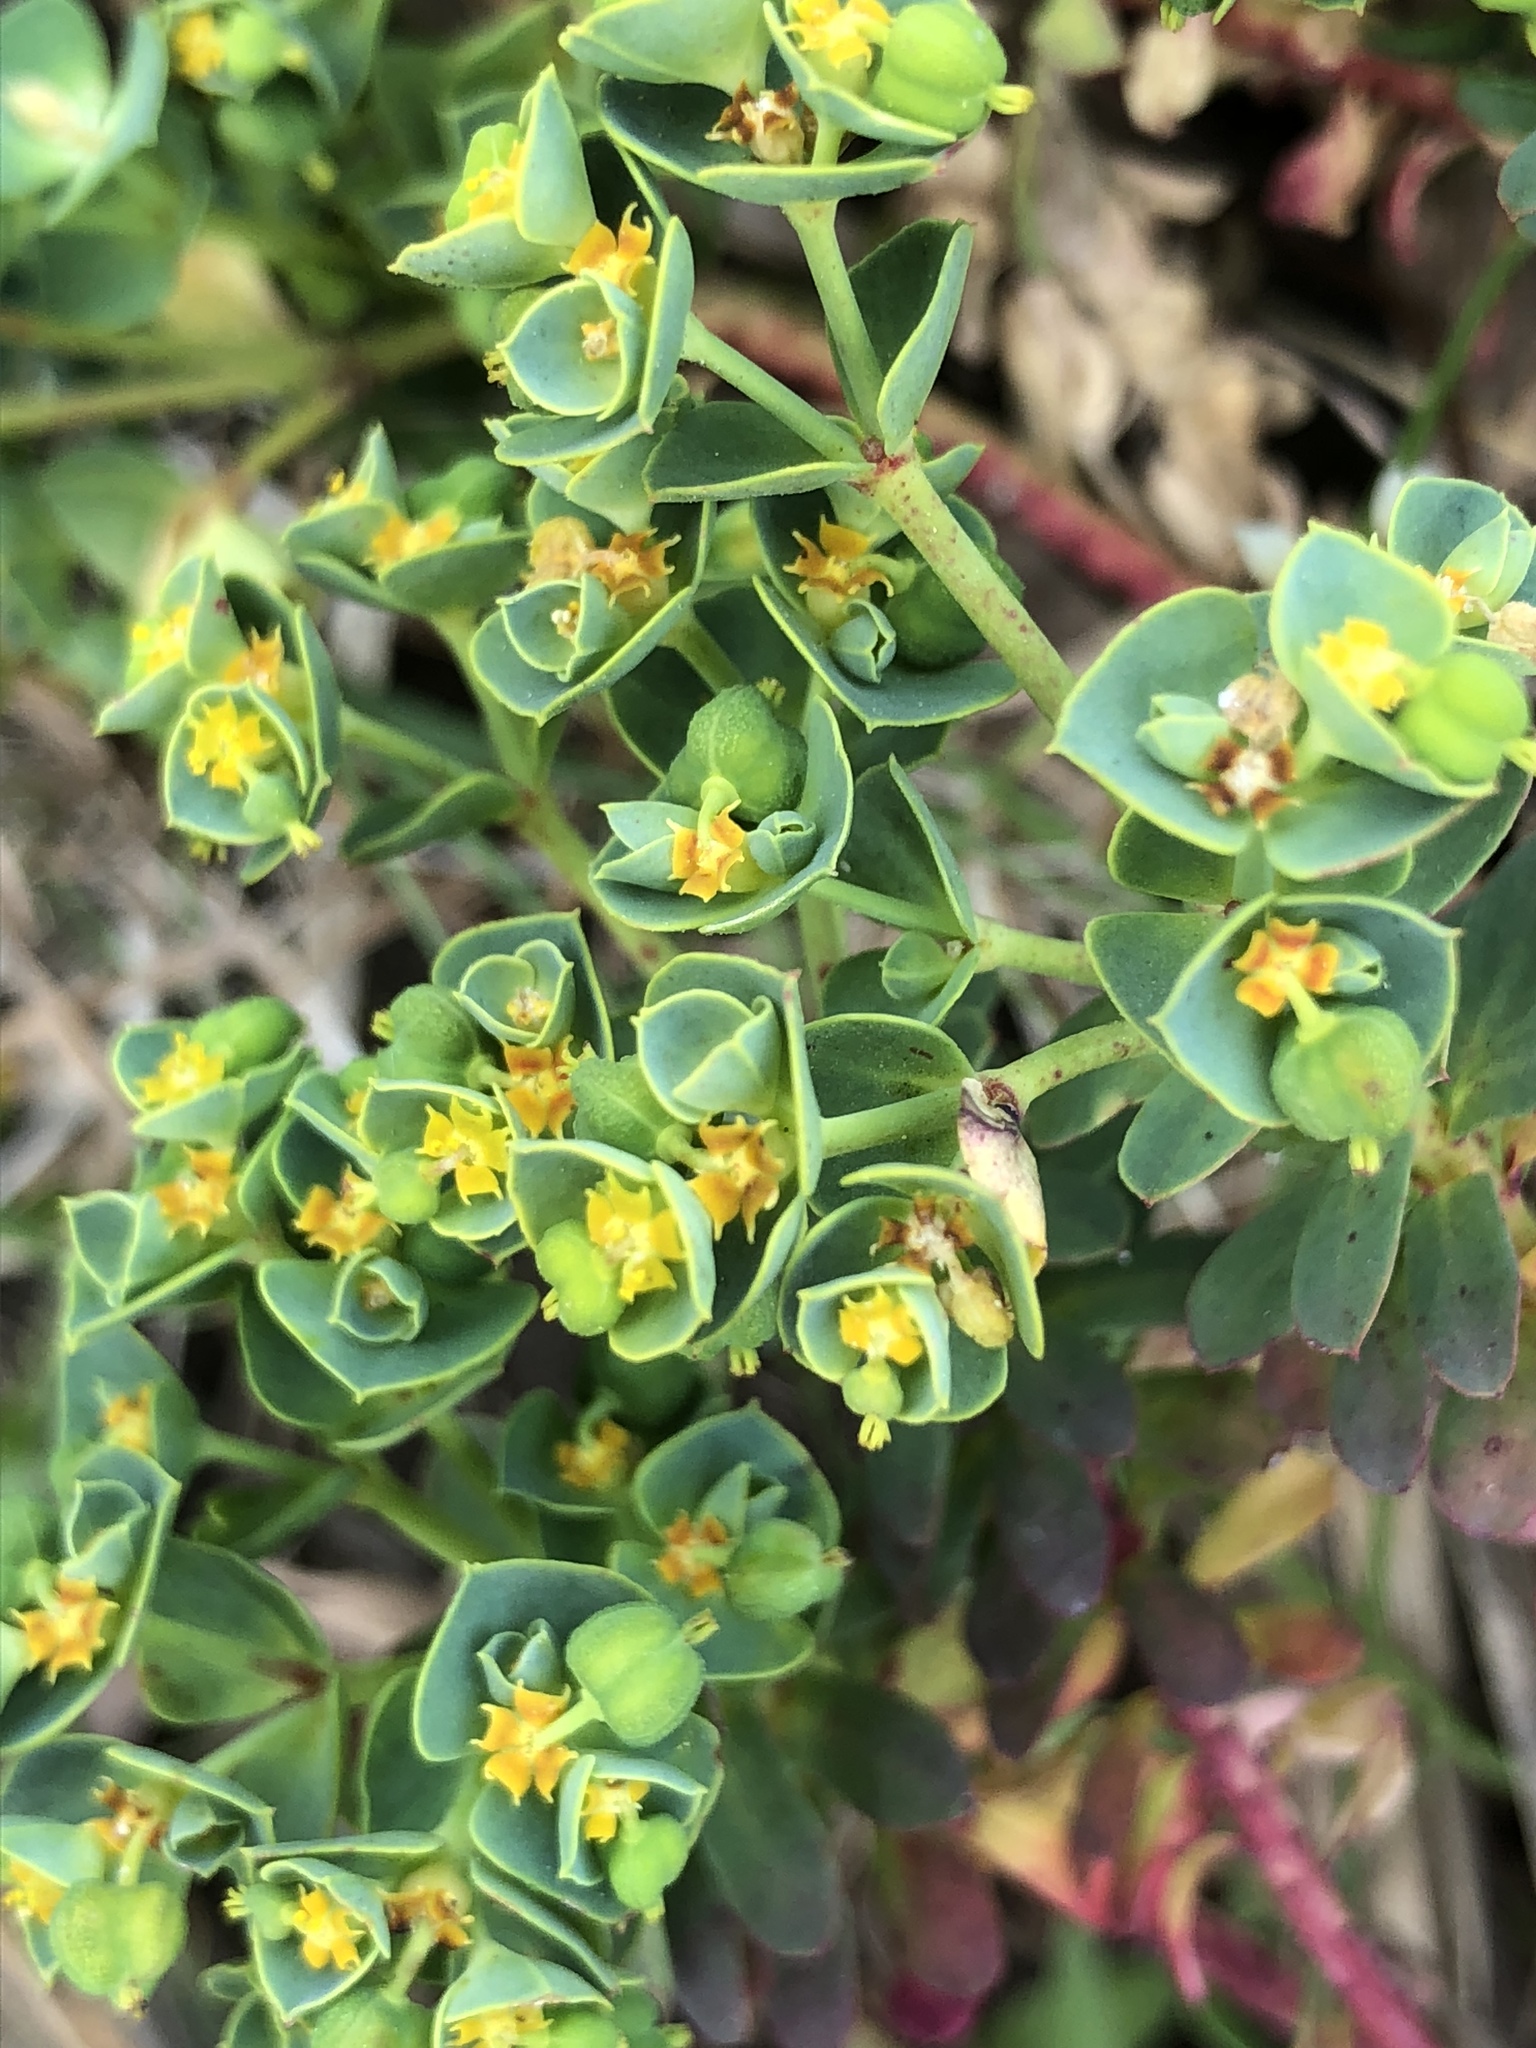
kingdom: Plantae
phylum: Tracheophyta
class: Magnoliopsida
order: Malpighiales
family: Euphorbiaceae
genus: Euphorbia
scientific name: Euphorbia portlandica
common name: Portland spurge
